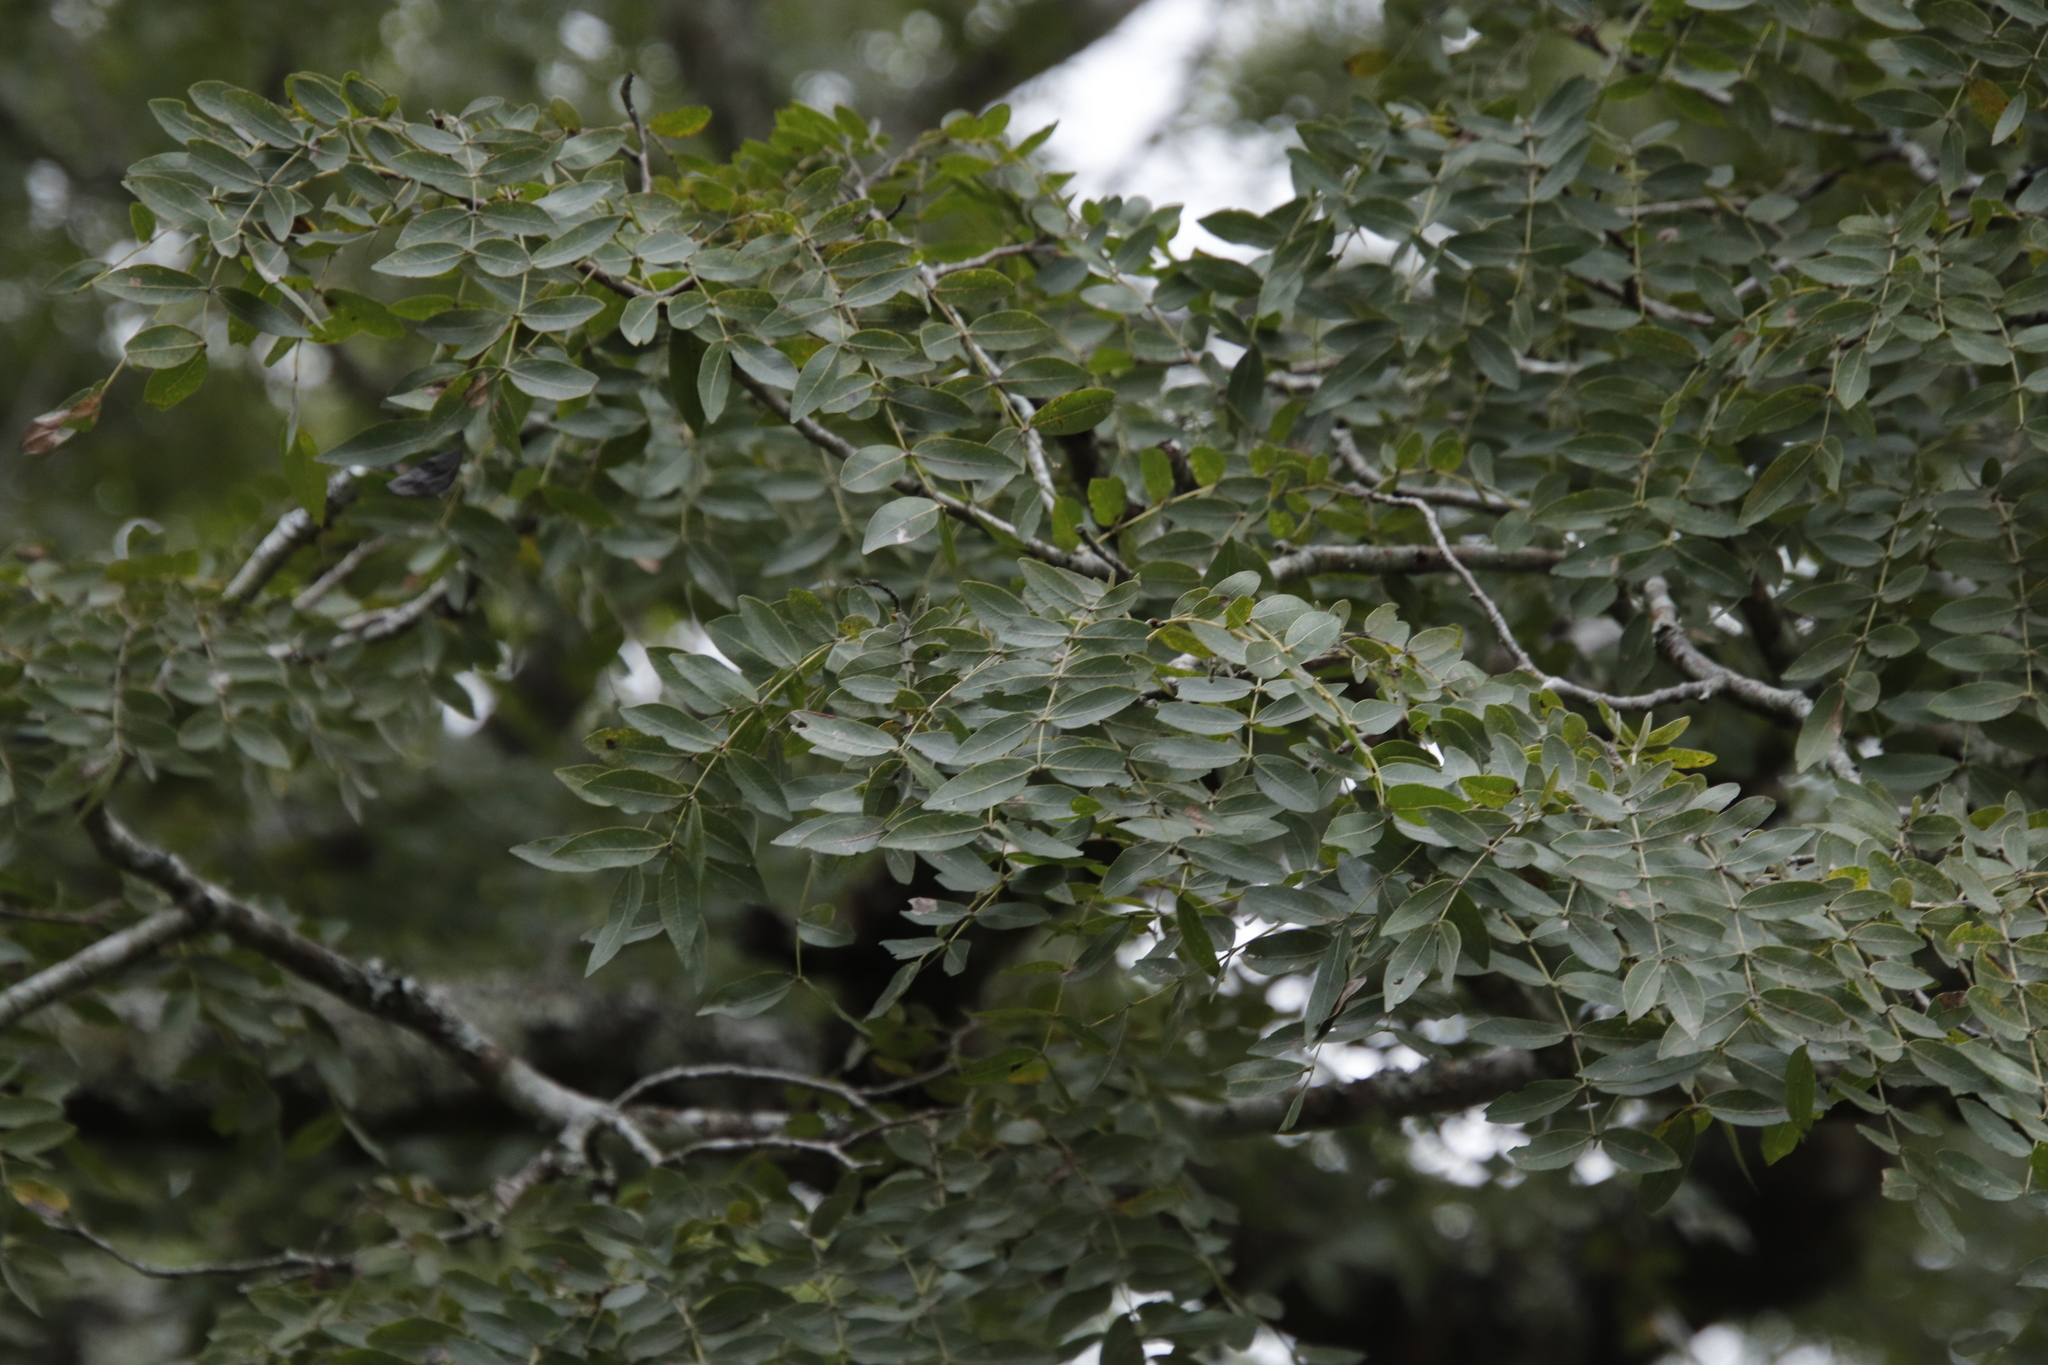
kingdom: Plantae
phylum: Tracheophyta
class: Magnoliopsida
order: Fabales
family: Fabaceae
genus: Brachystegia
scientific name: Brachystegia spiciformis
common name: Zebrawood
